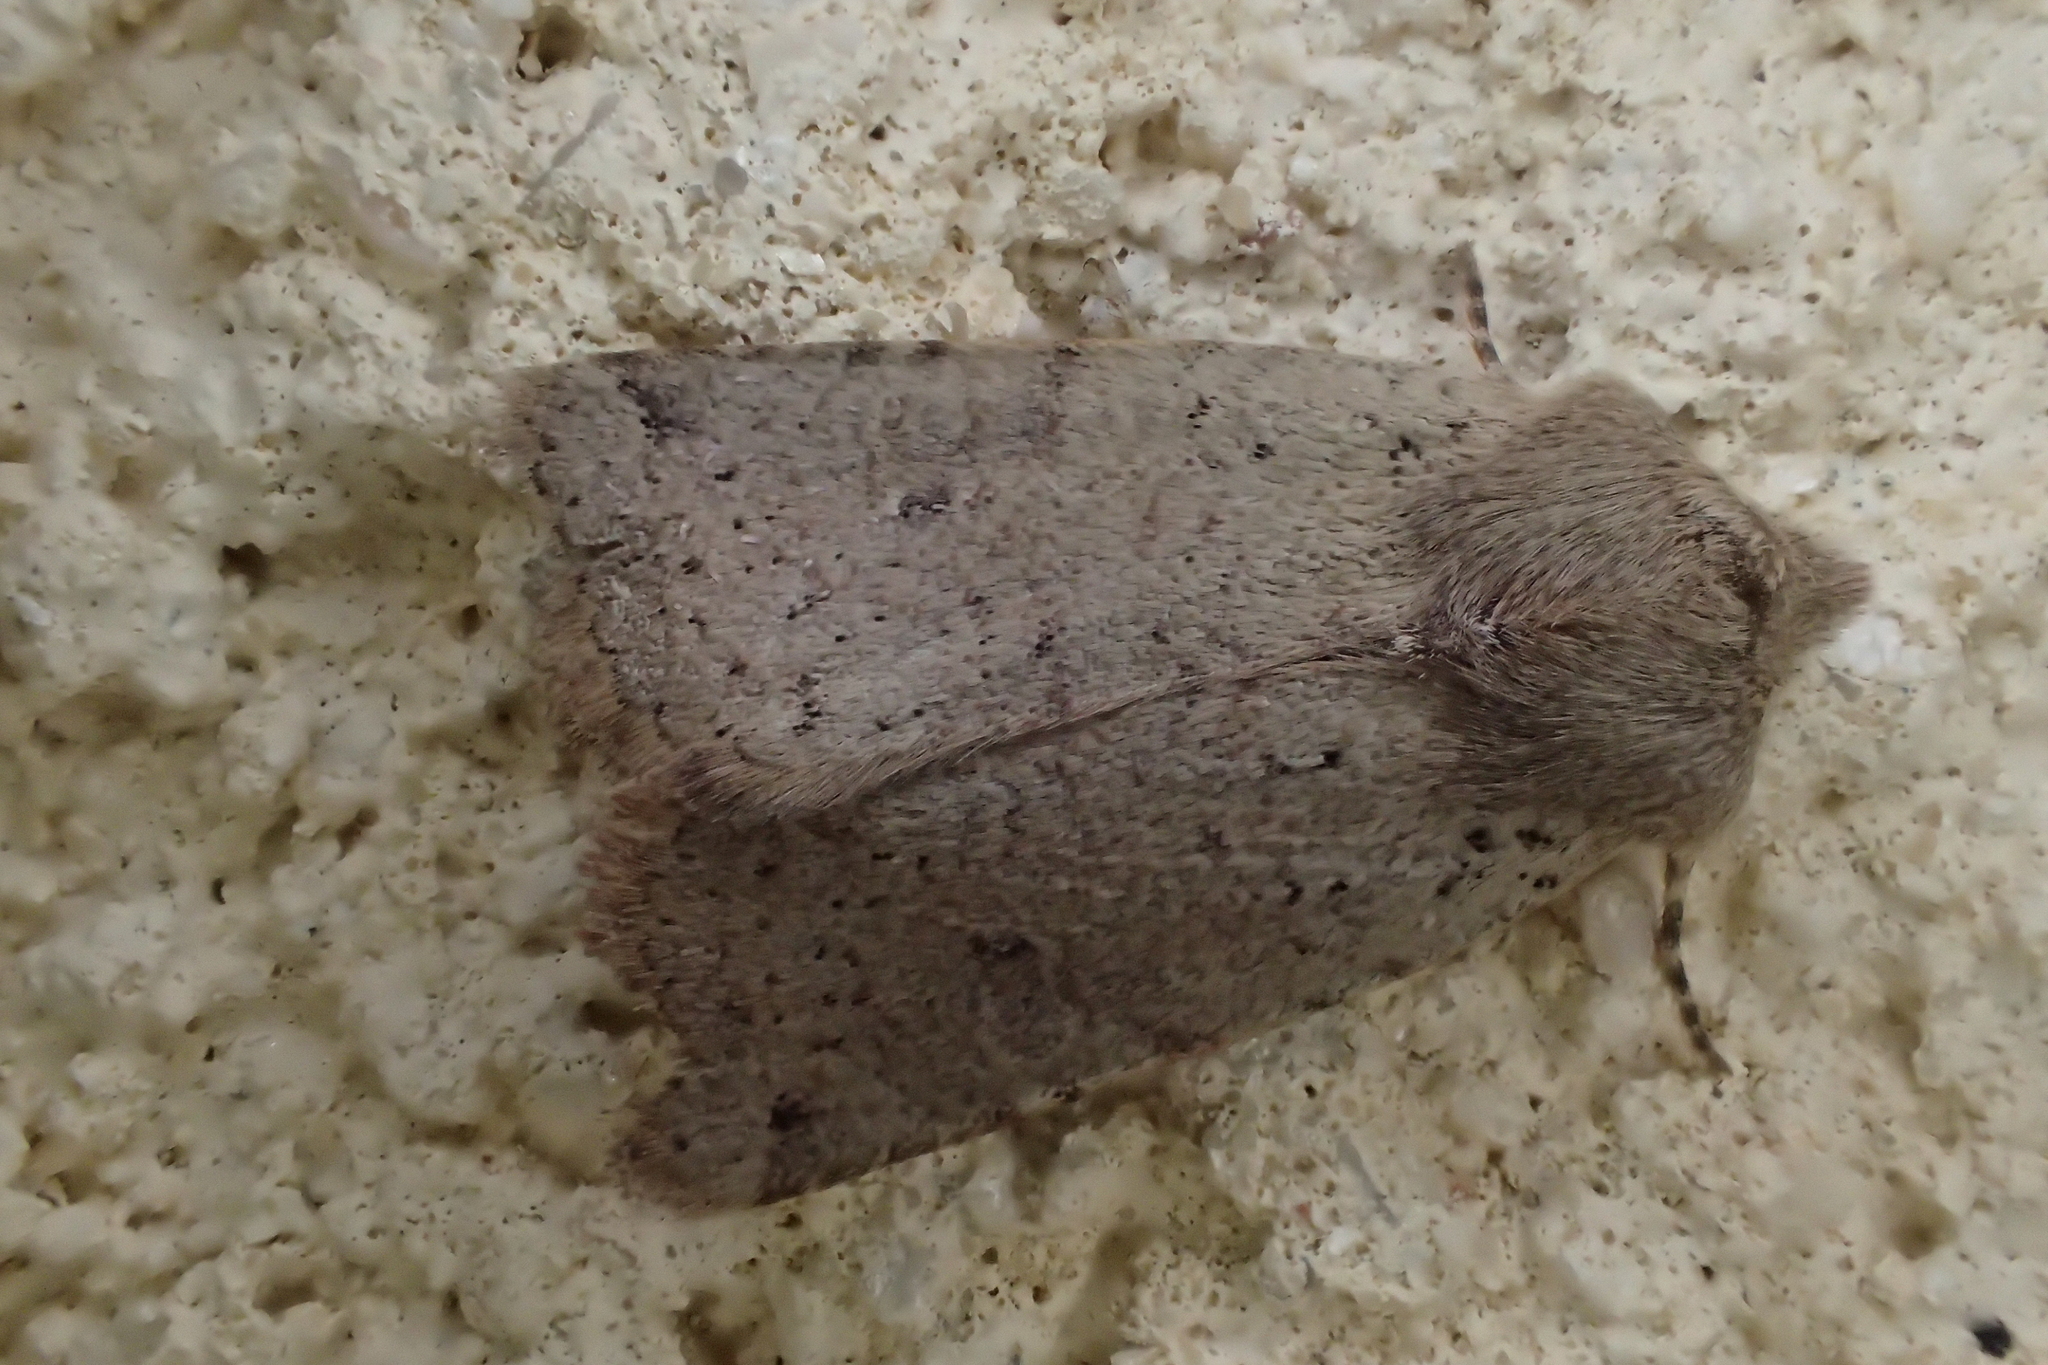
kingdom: Animalia
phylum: Arthropoda
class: Insecta
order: Lepidoptera
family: Noctuidae
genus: Agrochola
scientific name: Agrochola ruticilla
